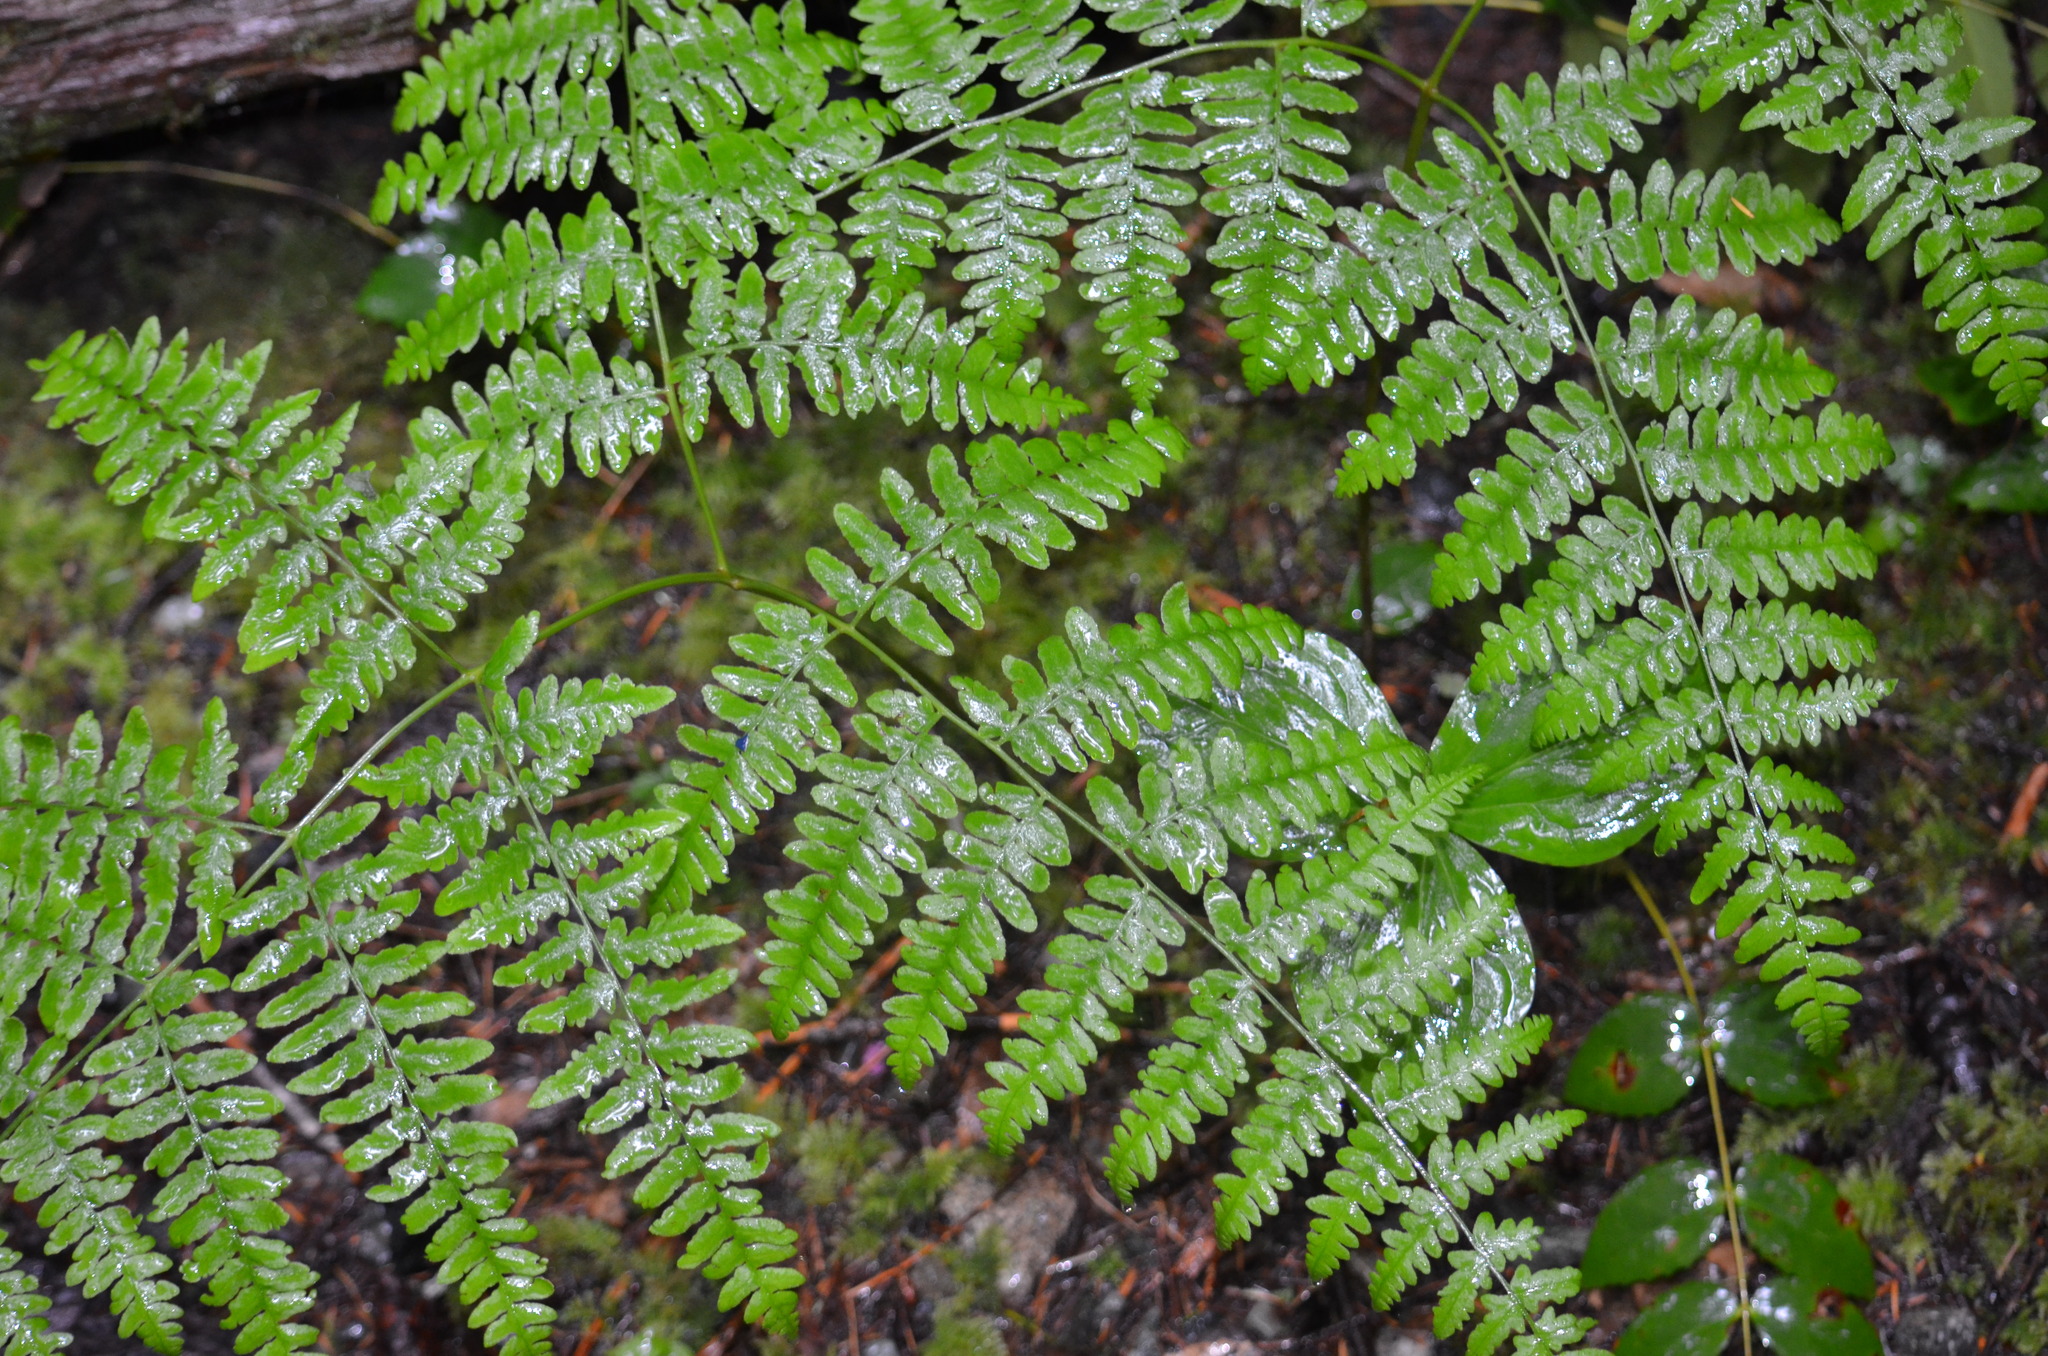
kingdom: Plantae
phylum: Tracheophyta
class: Polypodiopsida
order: Polypodiales
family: Dennstaedtiaceae
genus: Pteridium
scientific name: Pteridium aquilinum
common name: Bracken
